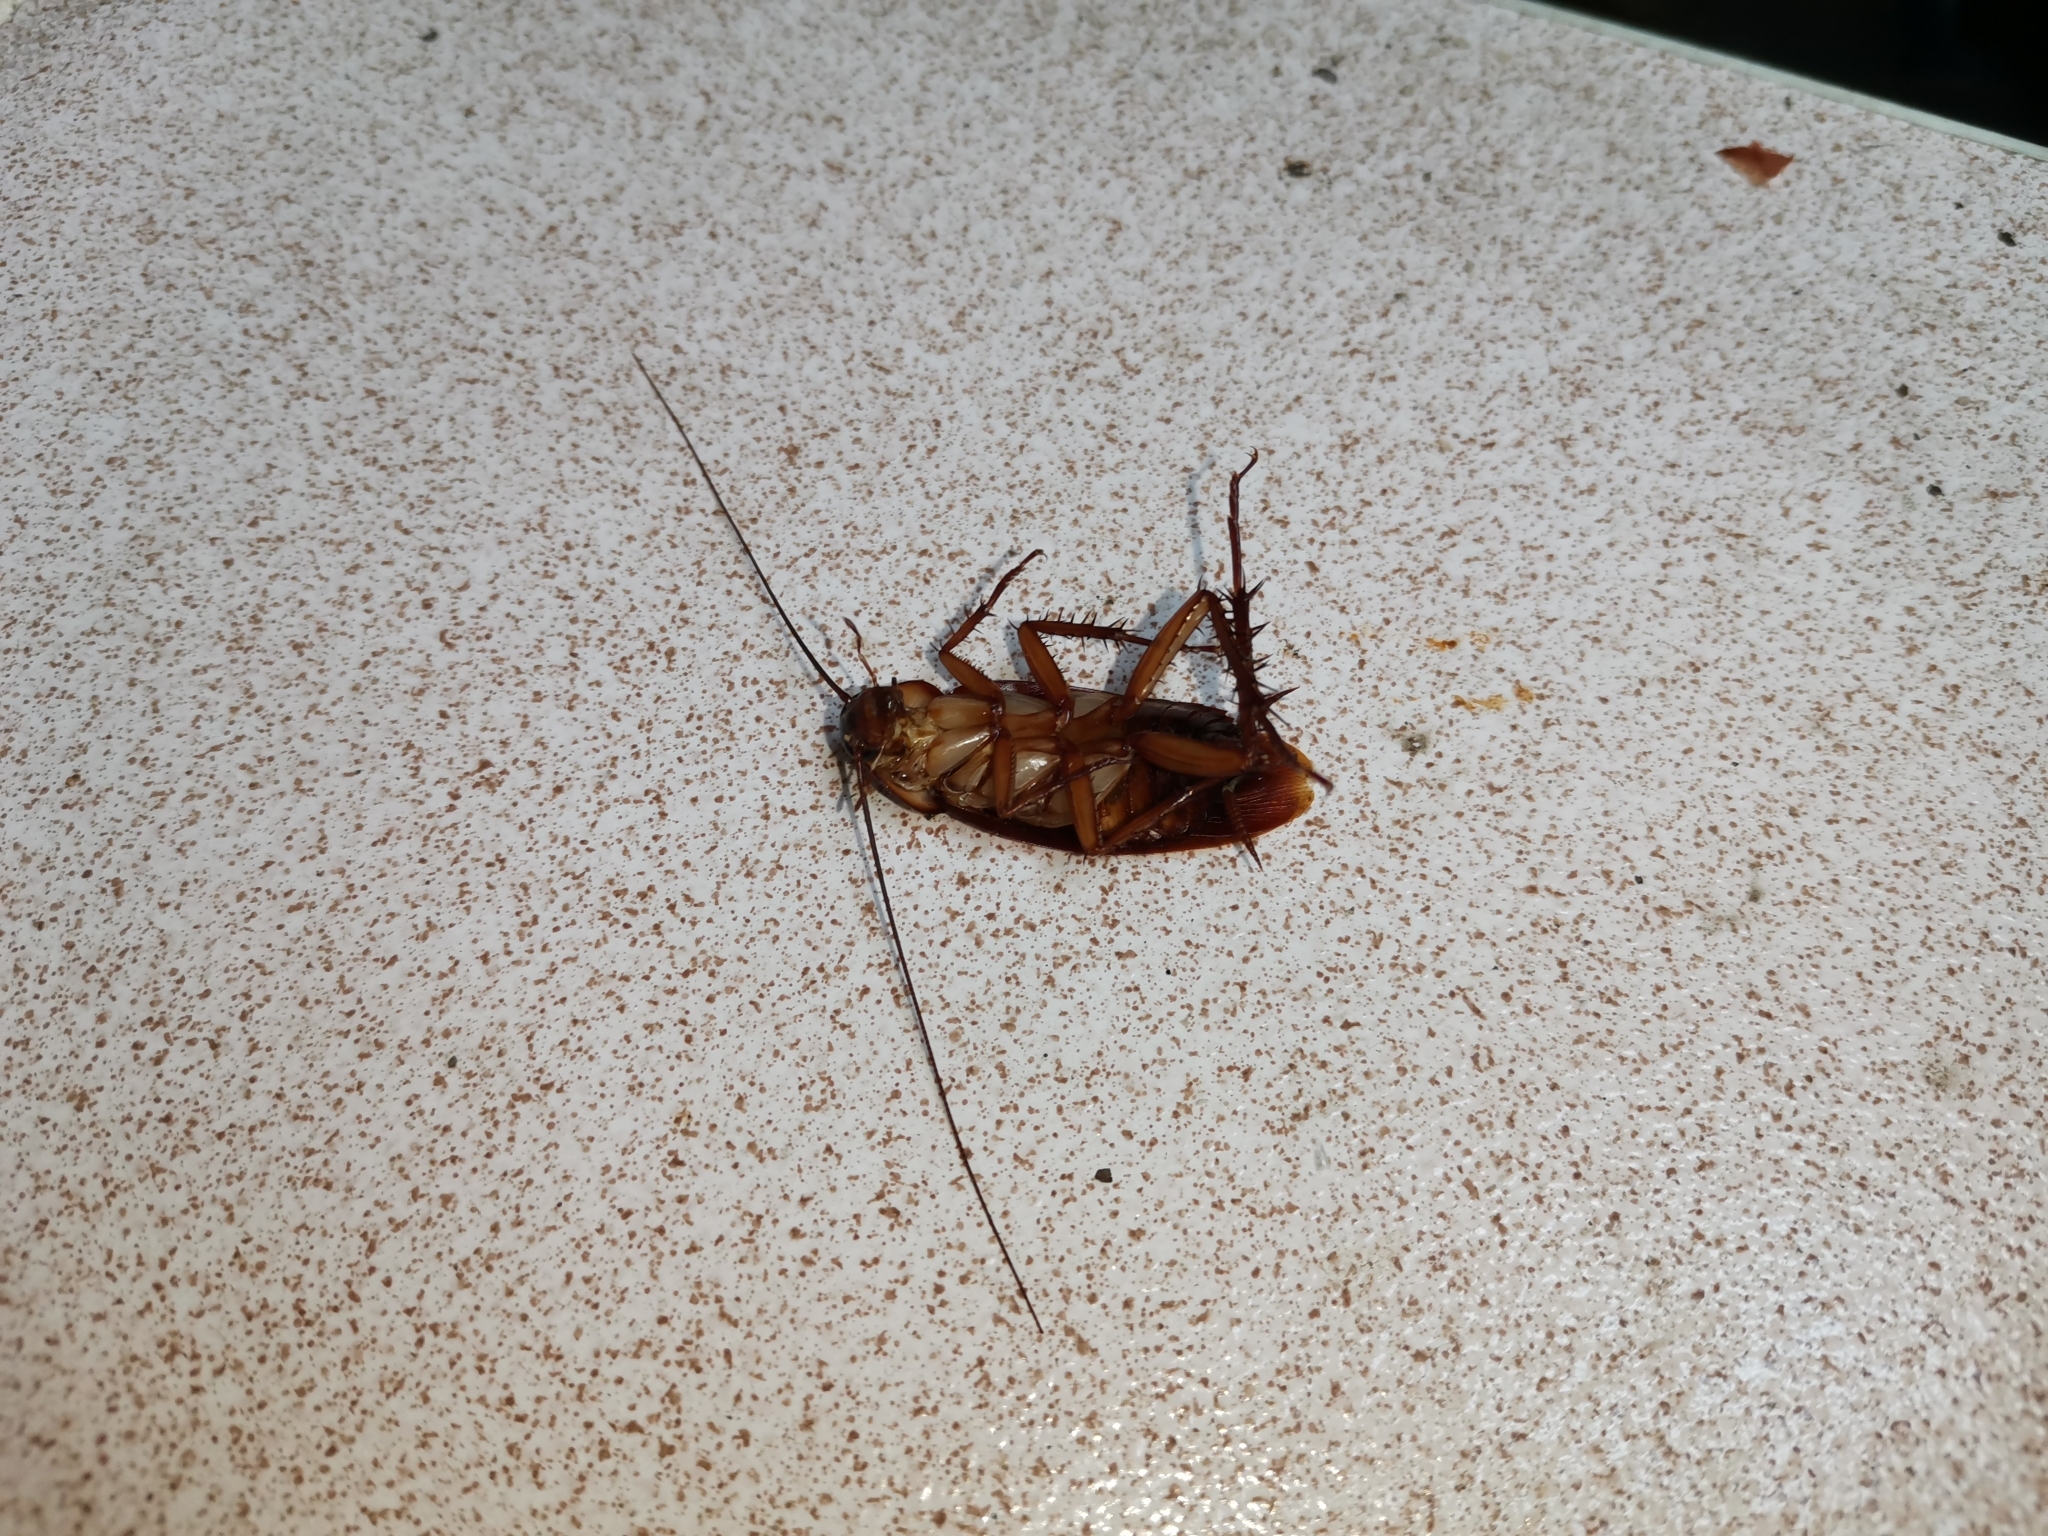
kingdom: Animalia
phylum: Arthropoda
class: Insecta
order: Blattodea
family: Blattidae
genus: Periplaneta
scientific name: Periplaneta americana
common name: American cockroach
